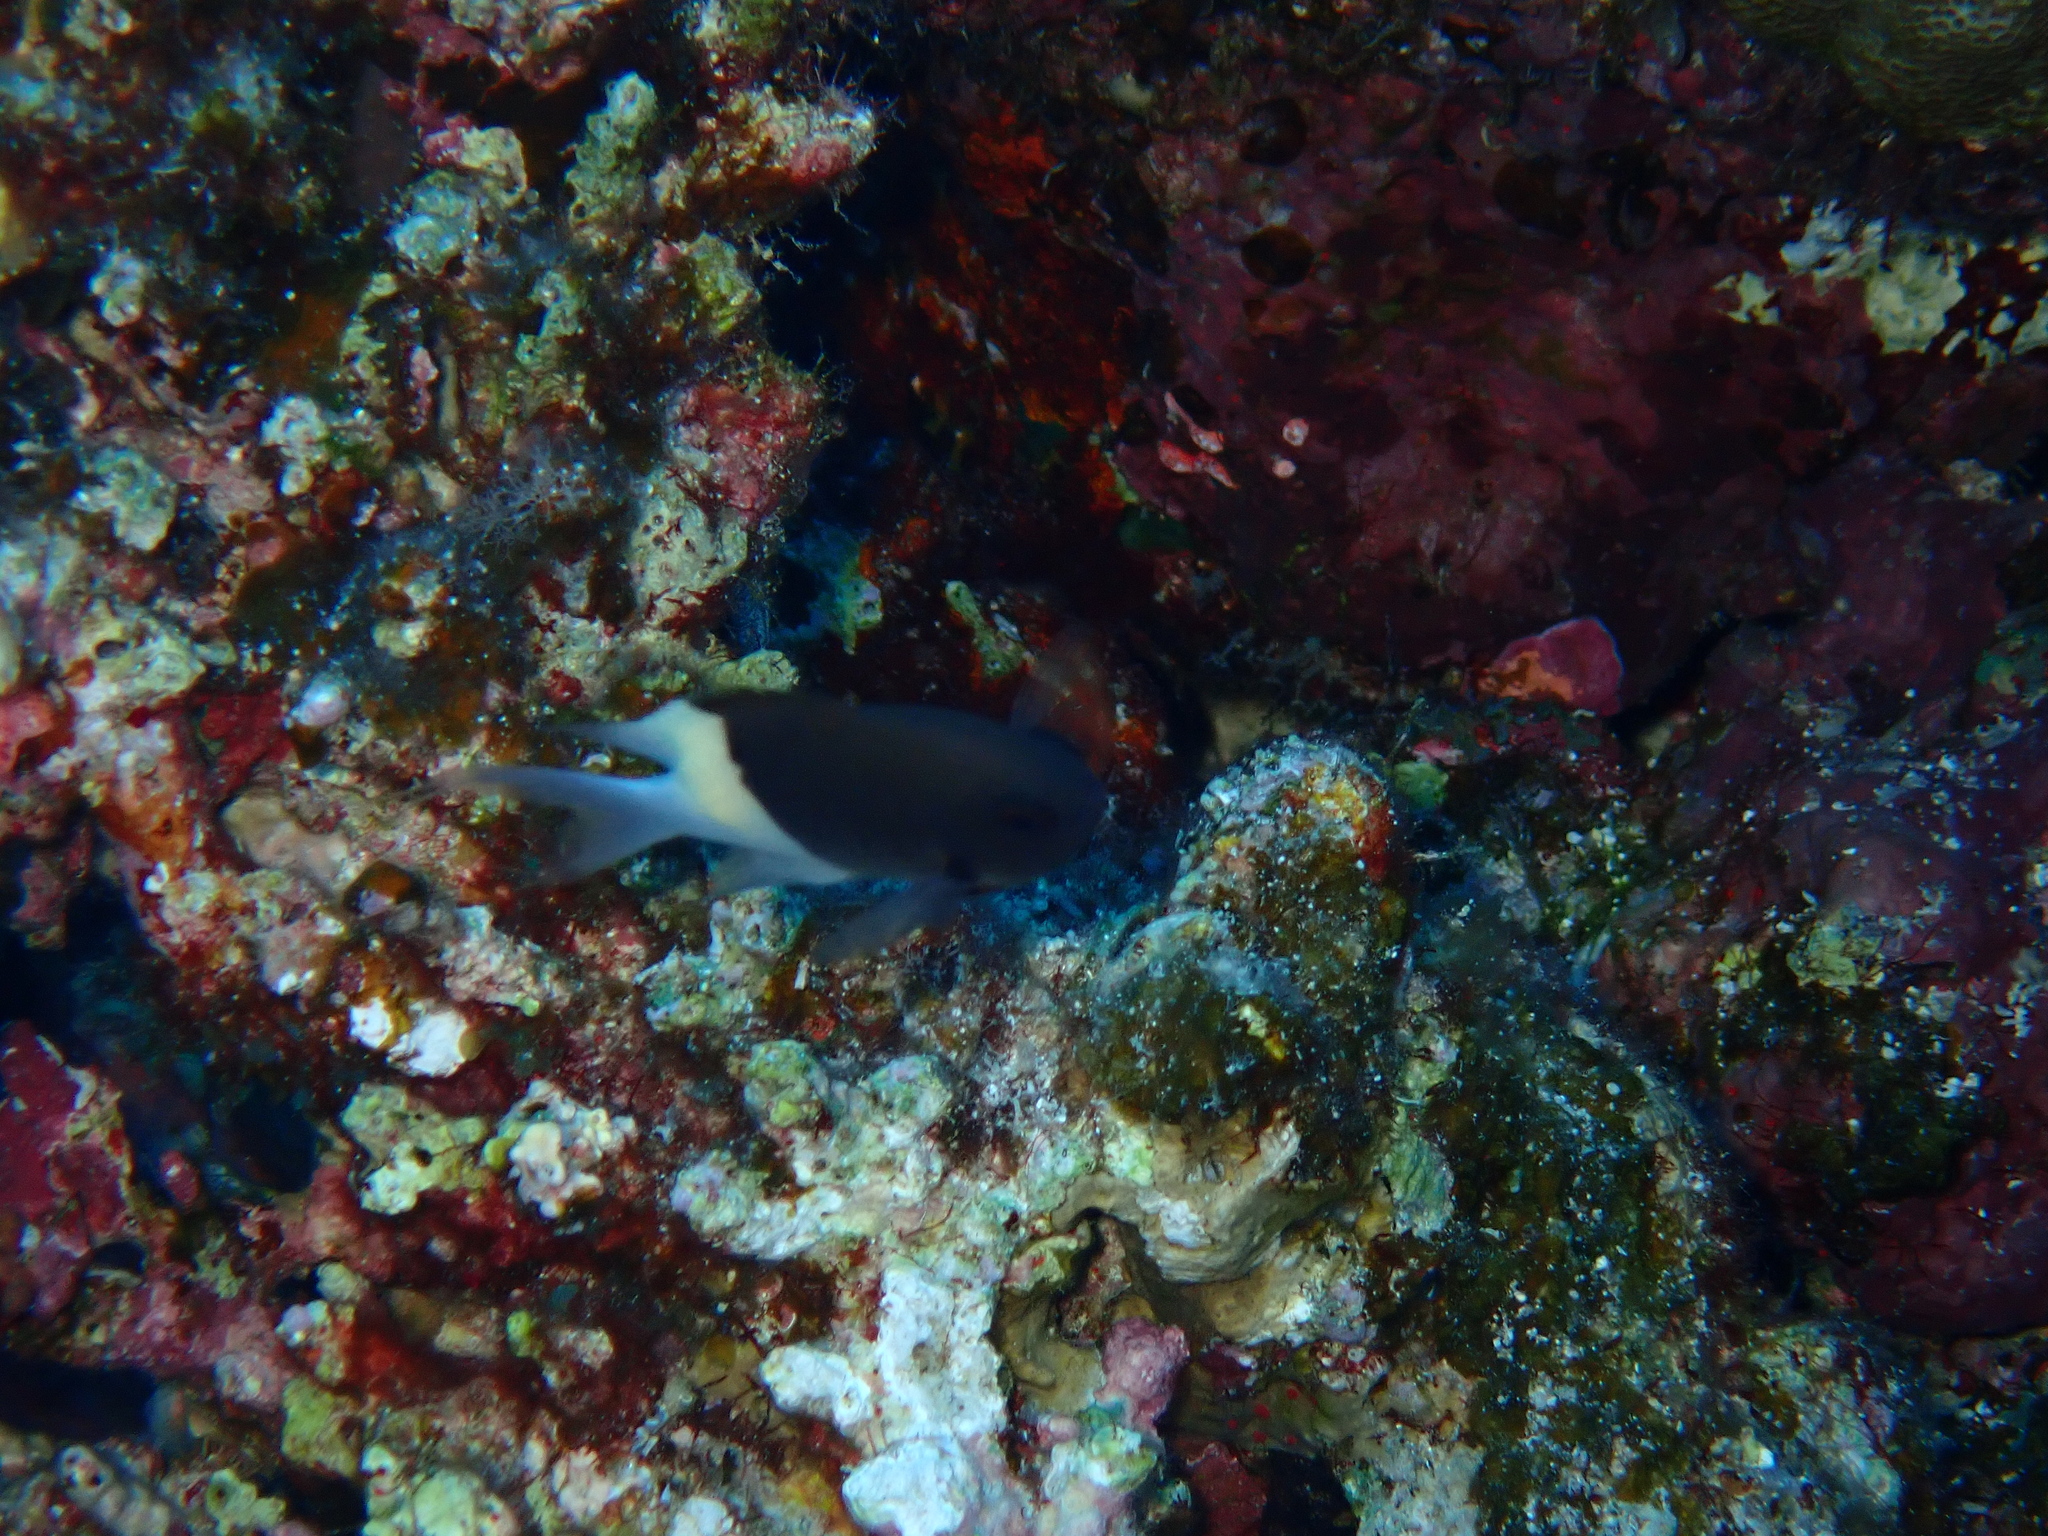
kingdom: Animalia
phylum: Chordata
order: Perciformes
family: Pomacentridae
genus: Chromis
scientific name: Chromis dimidiata
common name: Half-and-half chromis
